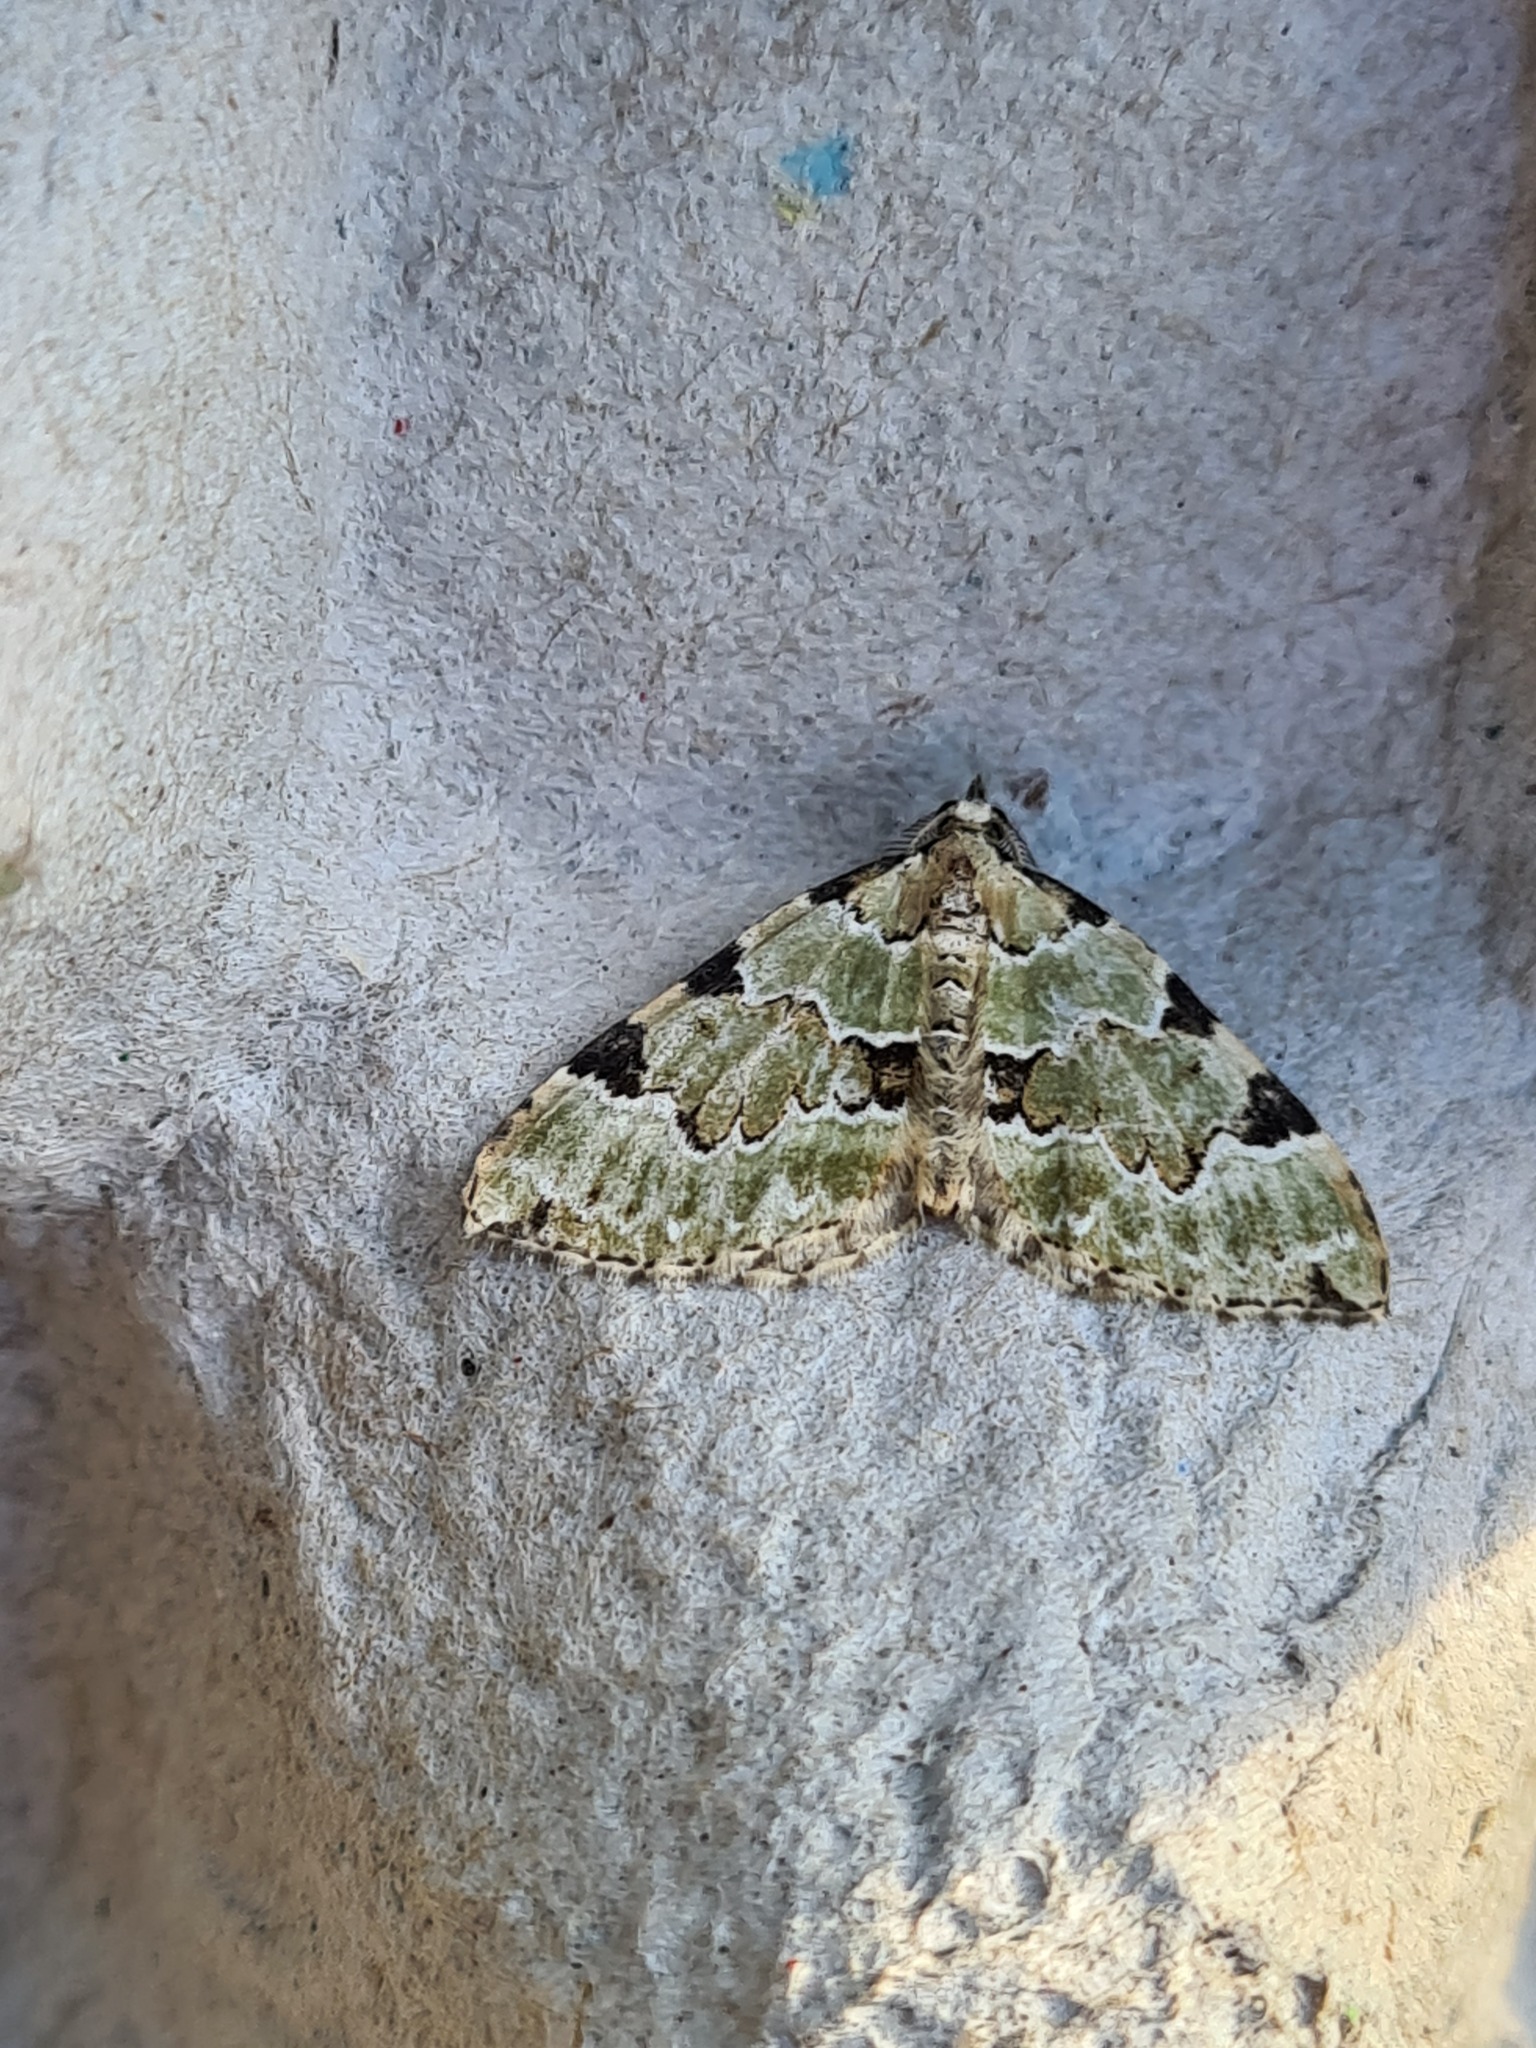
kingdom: Animalia
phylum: Arthropoda
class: Insecta
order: Lepidoptera
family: Geometridae
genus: Colostygia
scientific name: Colostygia pectinataria
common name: Green carpet
